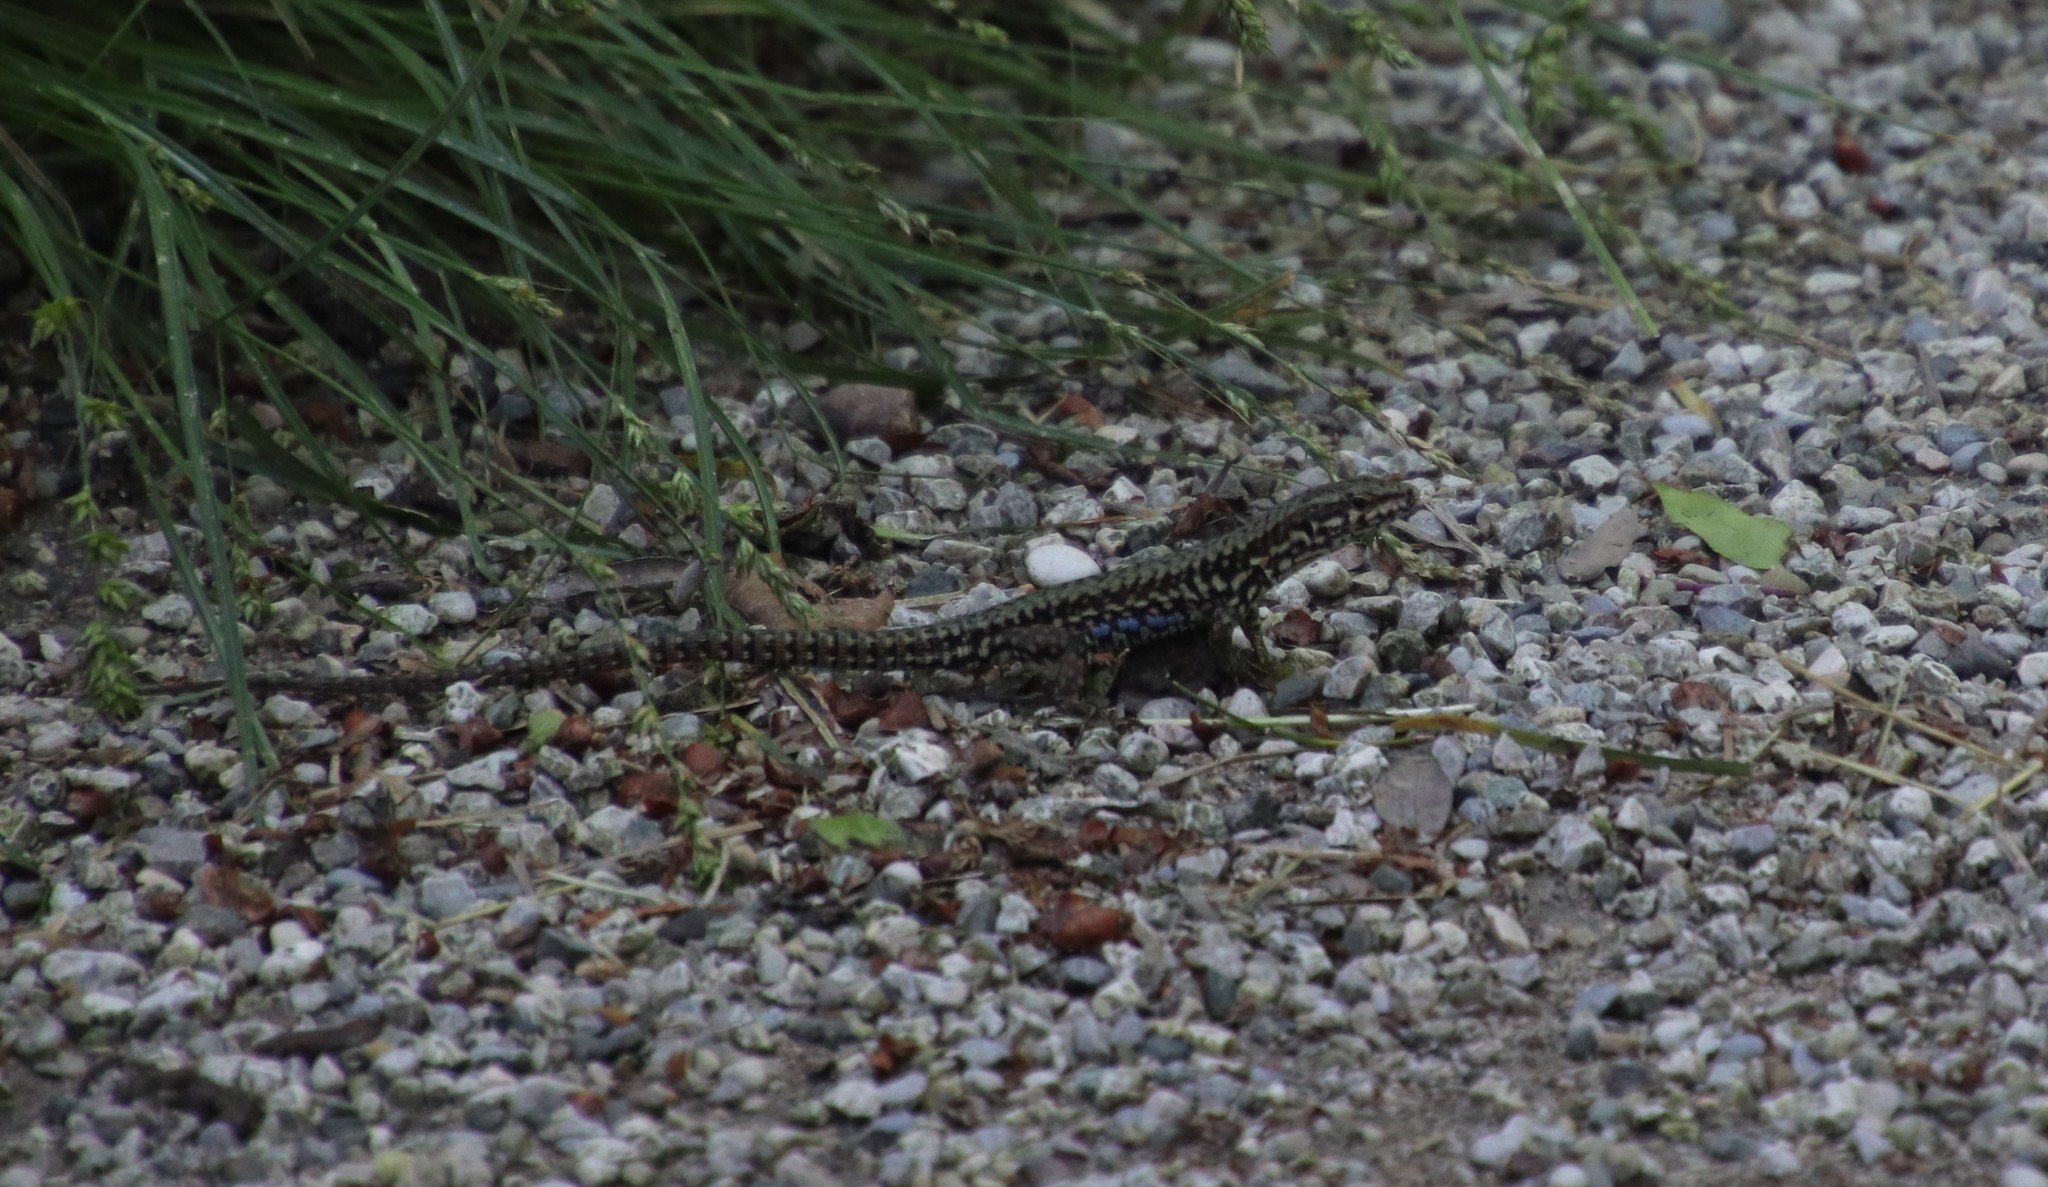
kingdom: Animalia
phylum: Chordata
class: Squamata
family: Lacertidae
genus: Podarcis
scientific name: Podarcis muralis
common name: Common wall lizard
